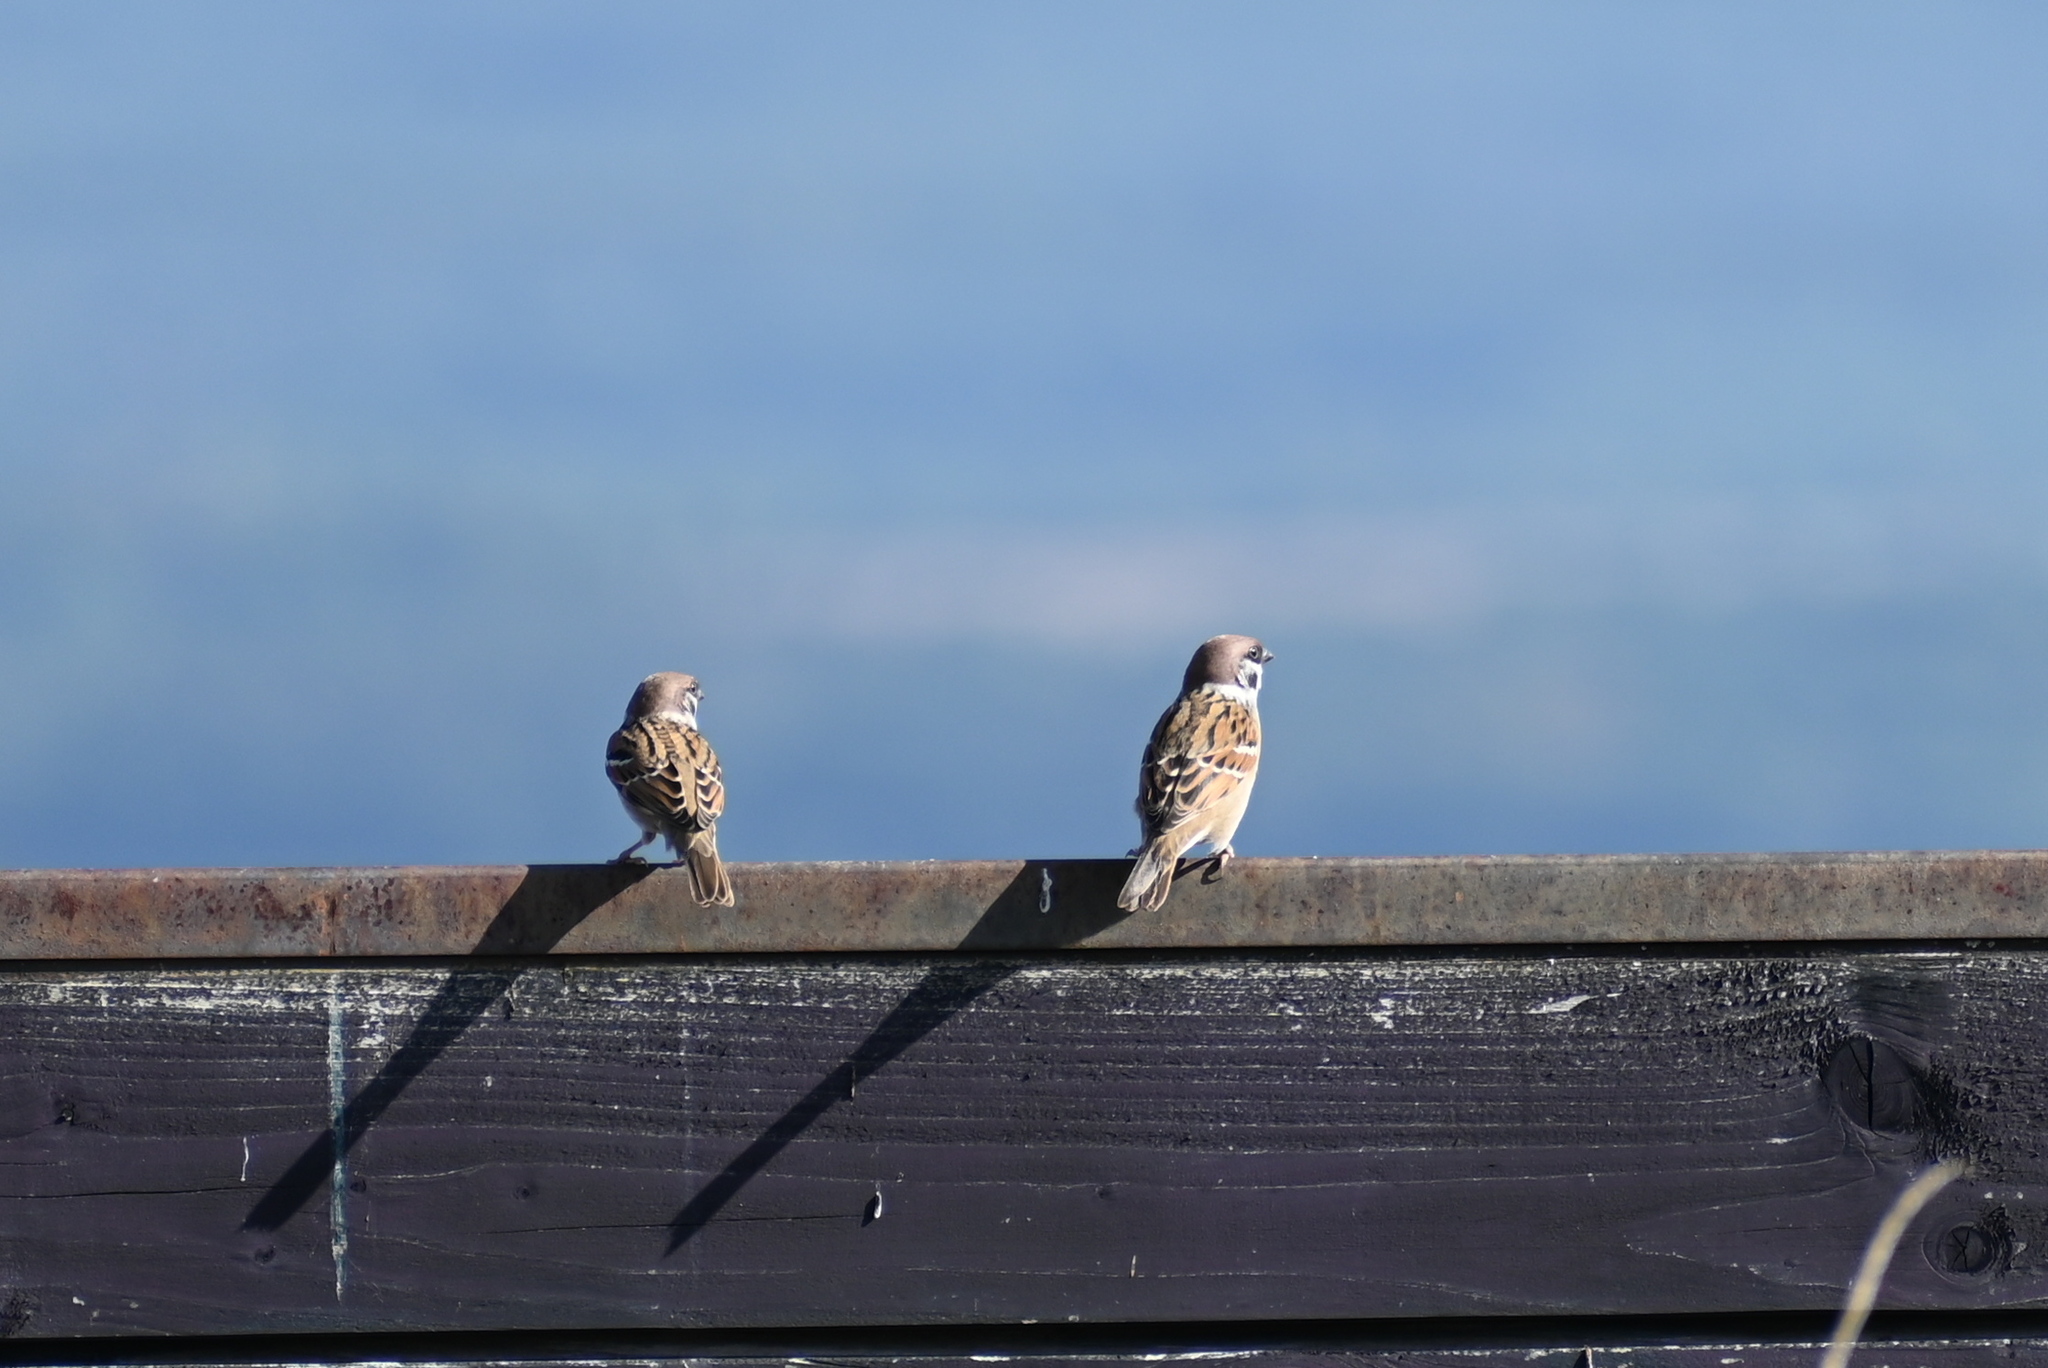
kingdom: Animalia
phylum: Chordata
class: Aves
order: Passeriformes
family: Passeridae
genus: Passer
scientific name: Passer montanus
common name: Eurasian tree sparrow
